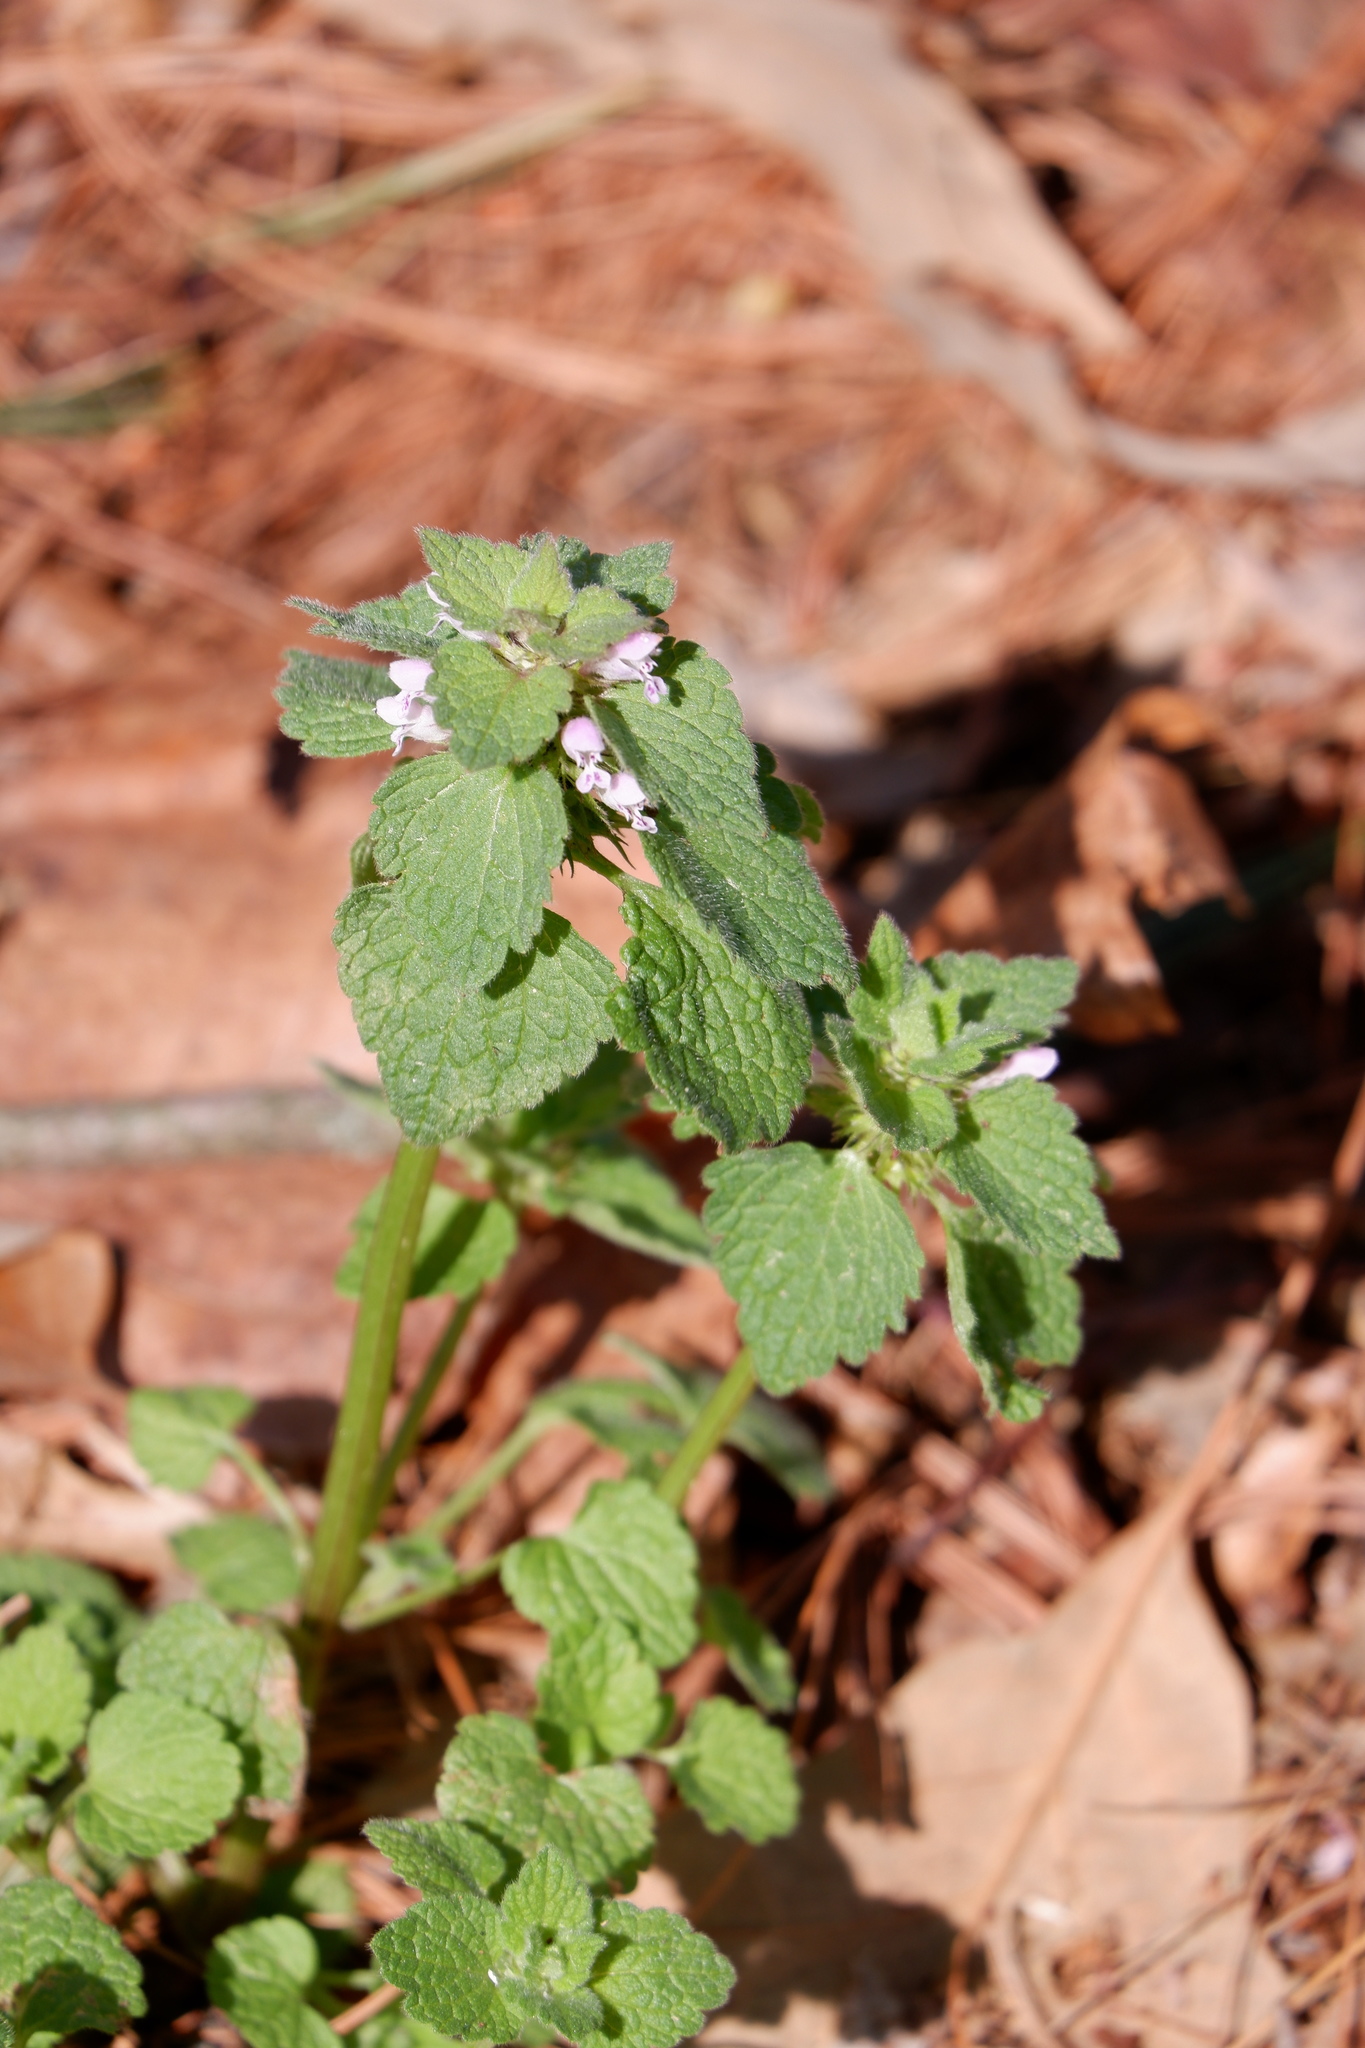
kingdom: Plantae
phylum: Tracheophyta
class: Magnoliopsida
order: Lamiales
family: Lamiaceae
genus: Lamium
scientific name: Lamium purpureum
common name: Red dead-nettle
